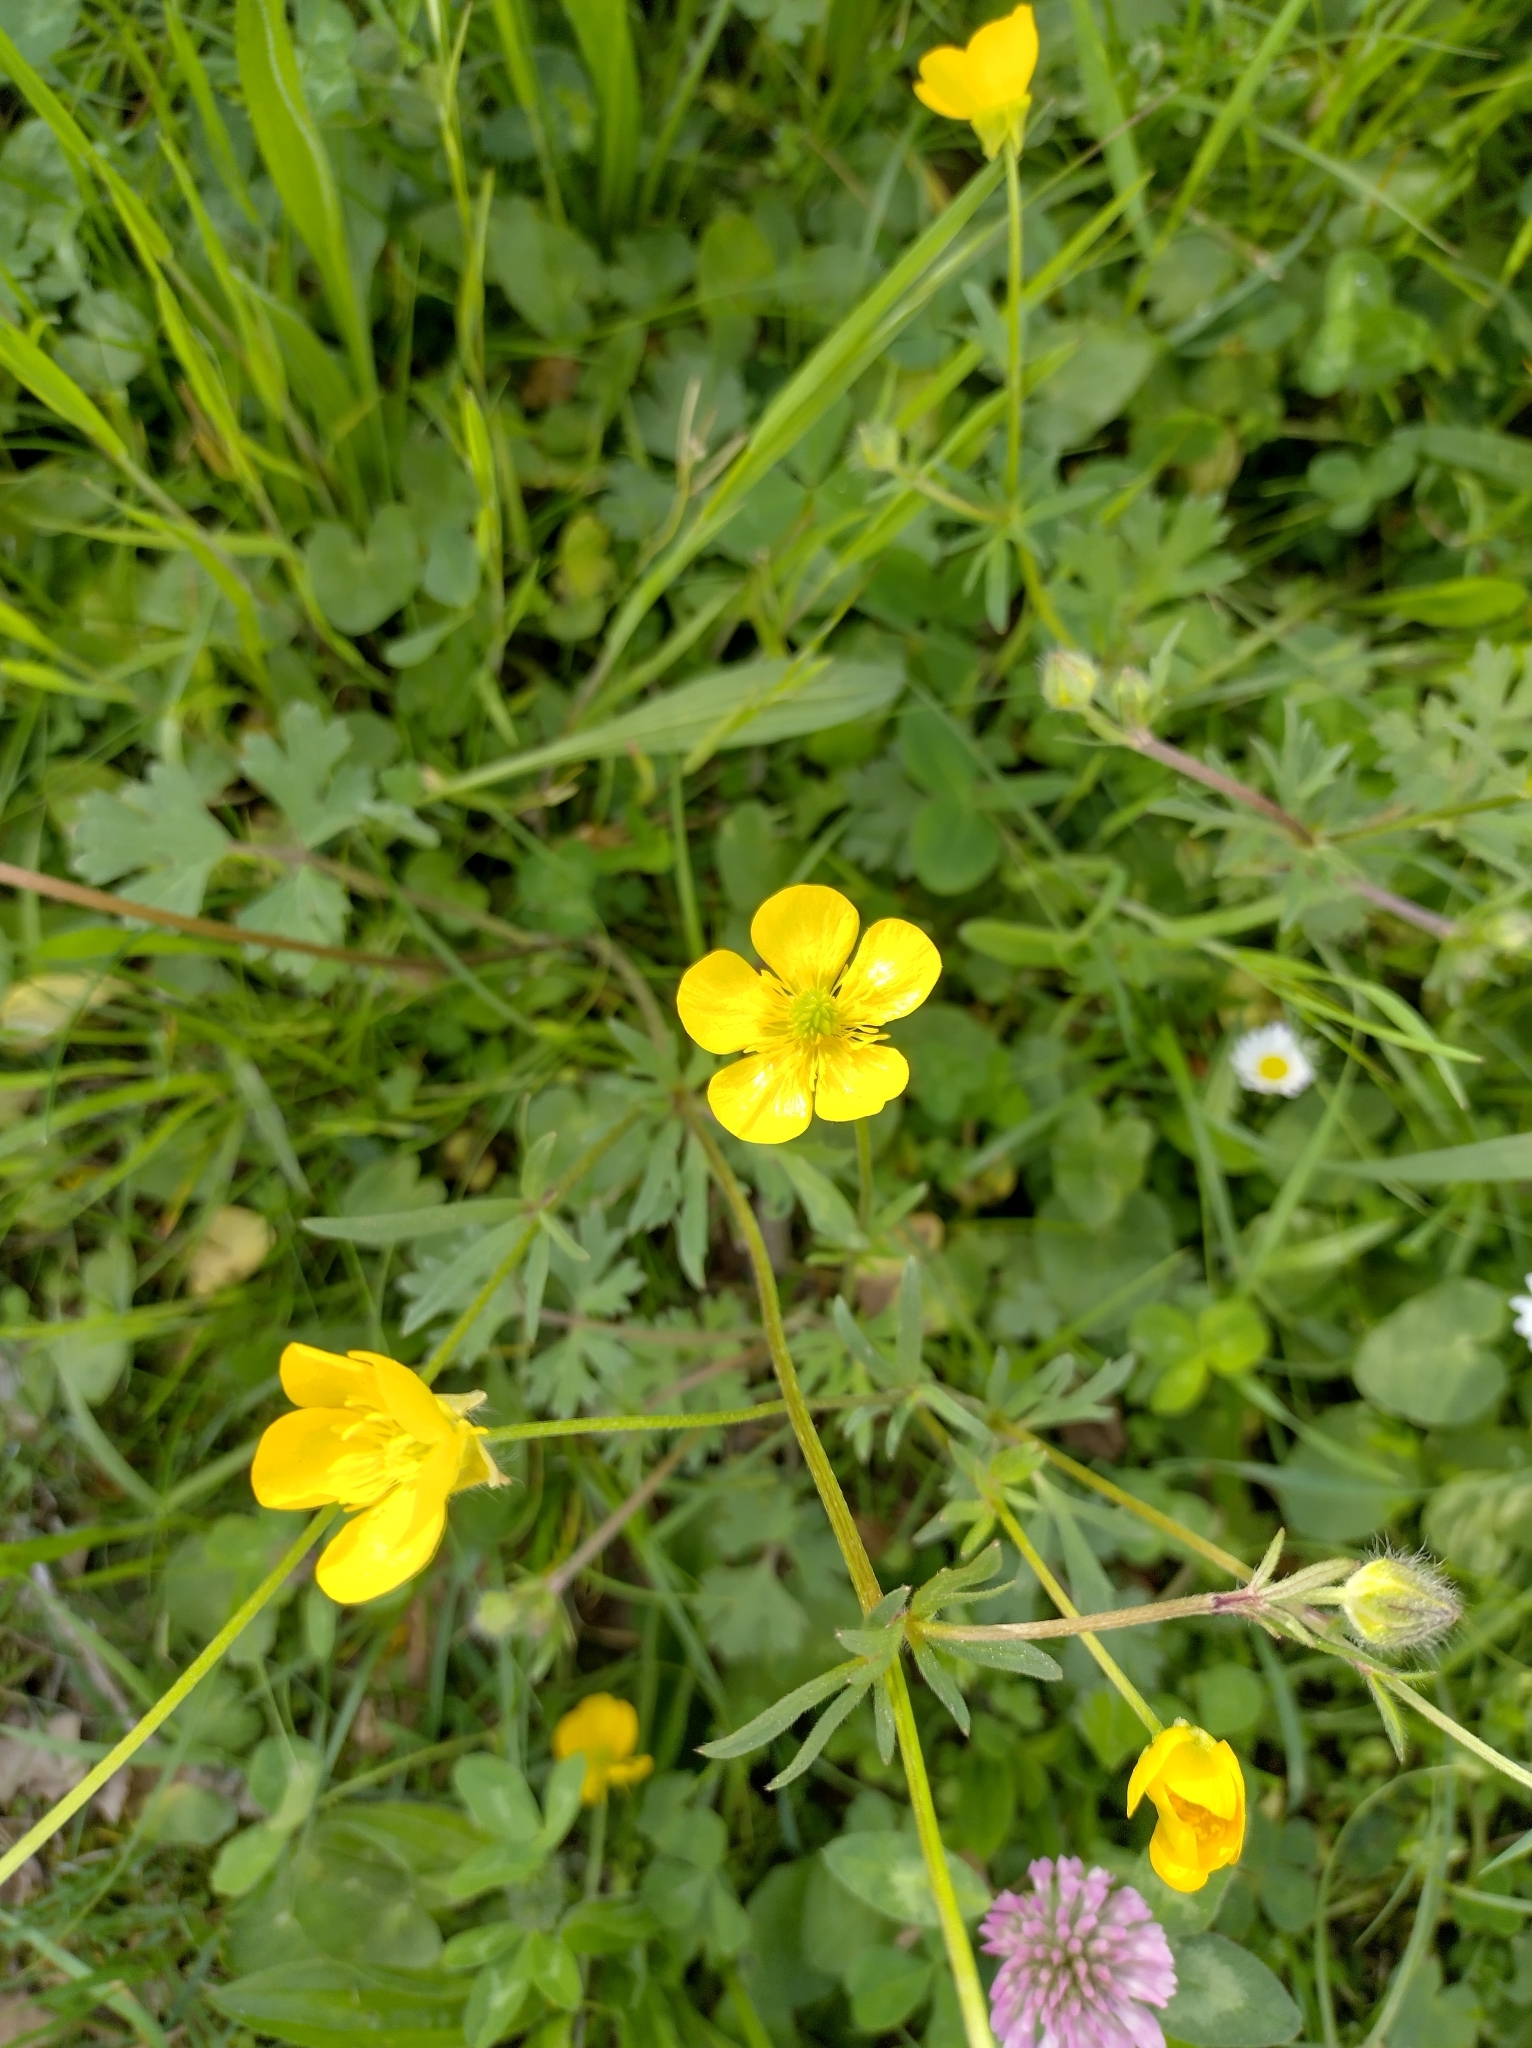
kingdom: Plantae
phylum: Tracheophyta
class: Magnoliopsida
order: Ranunculales
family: Ranunculaceae
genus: Ranunculus
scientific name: Ranunculus bulbosus
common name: Bulbous buttercup
